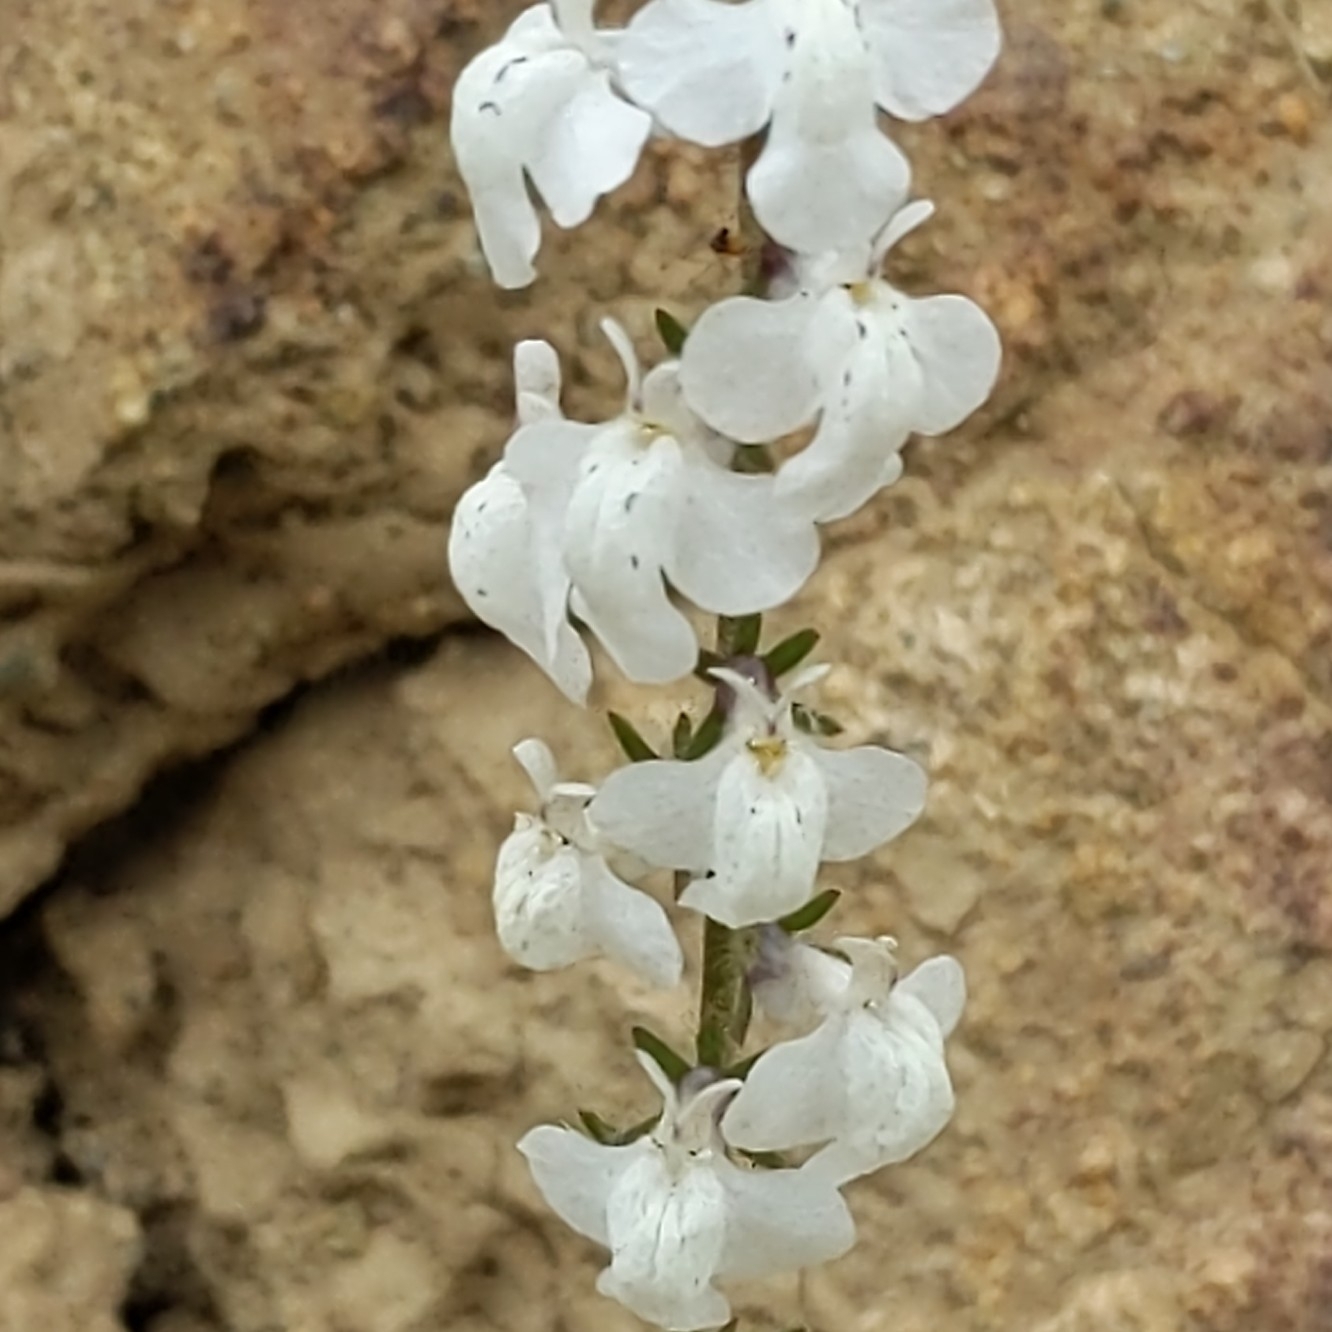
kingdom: Plantae
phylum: Tracheophyta
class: Magnoliopsida
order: Lamiales
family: Plantaginaceae
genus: Sairocarpus
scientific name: Sairocarpus coulterianus
